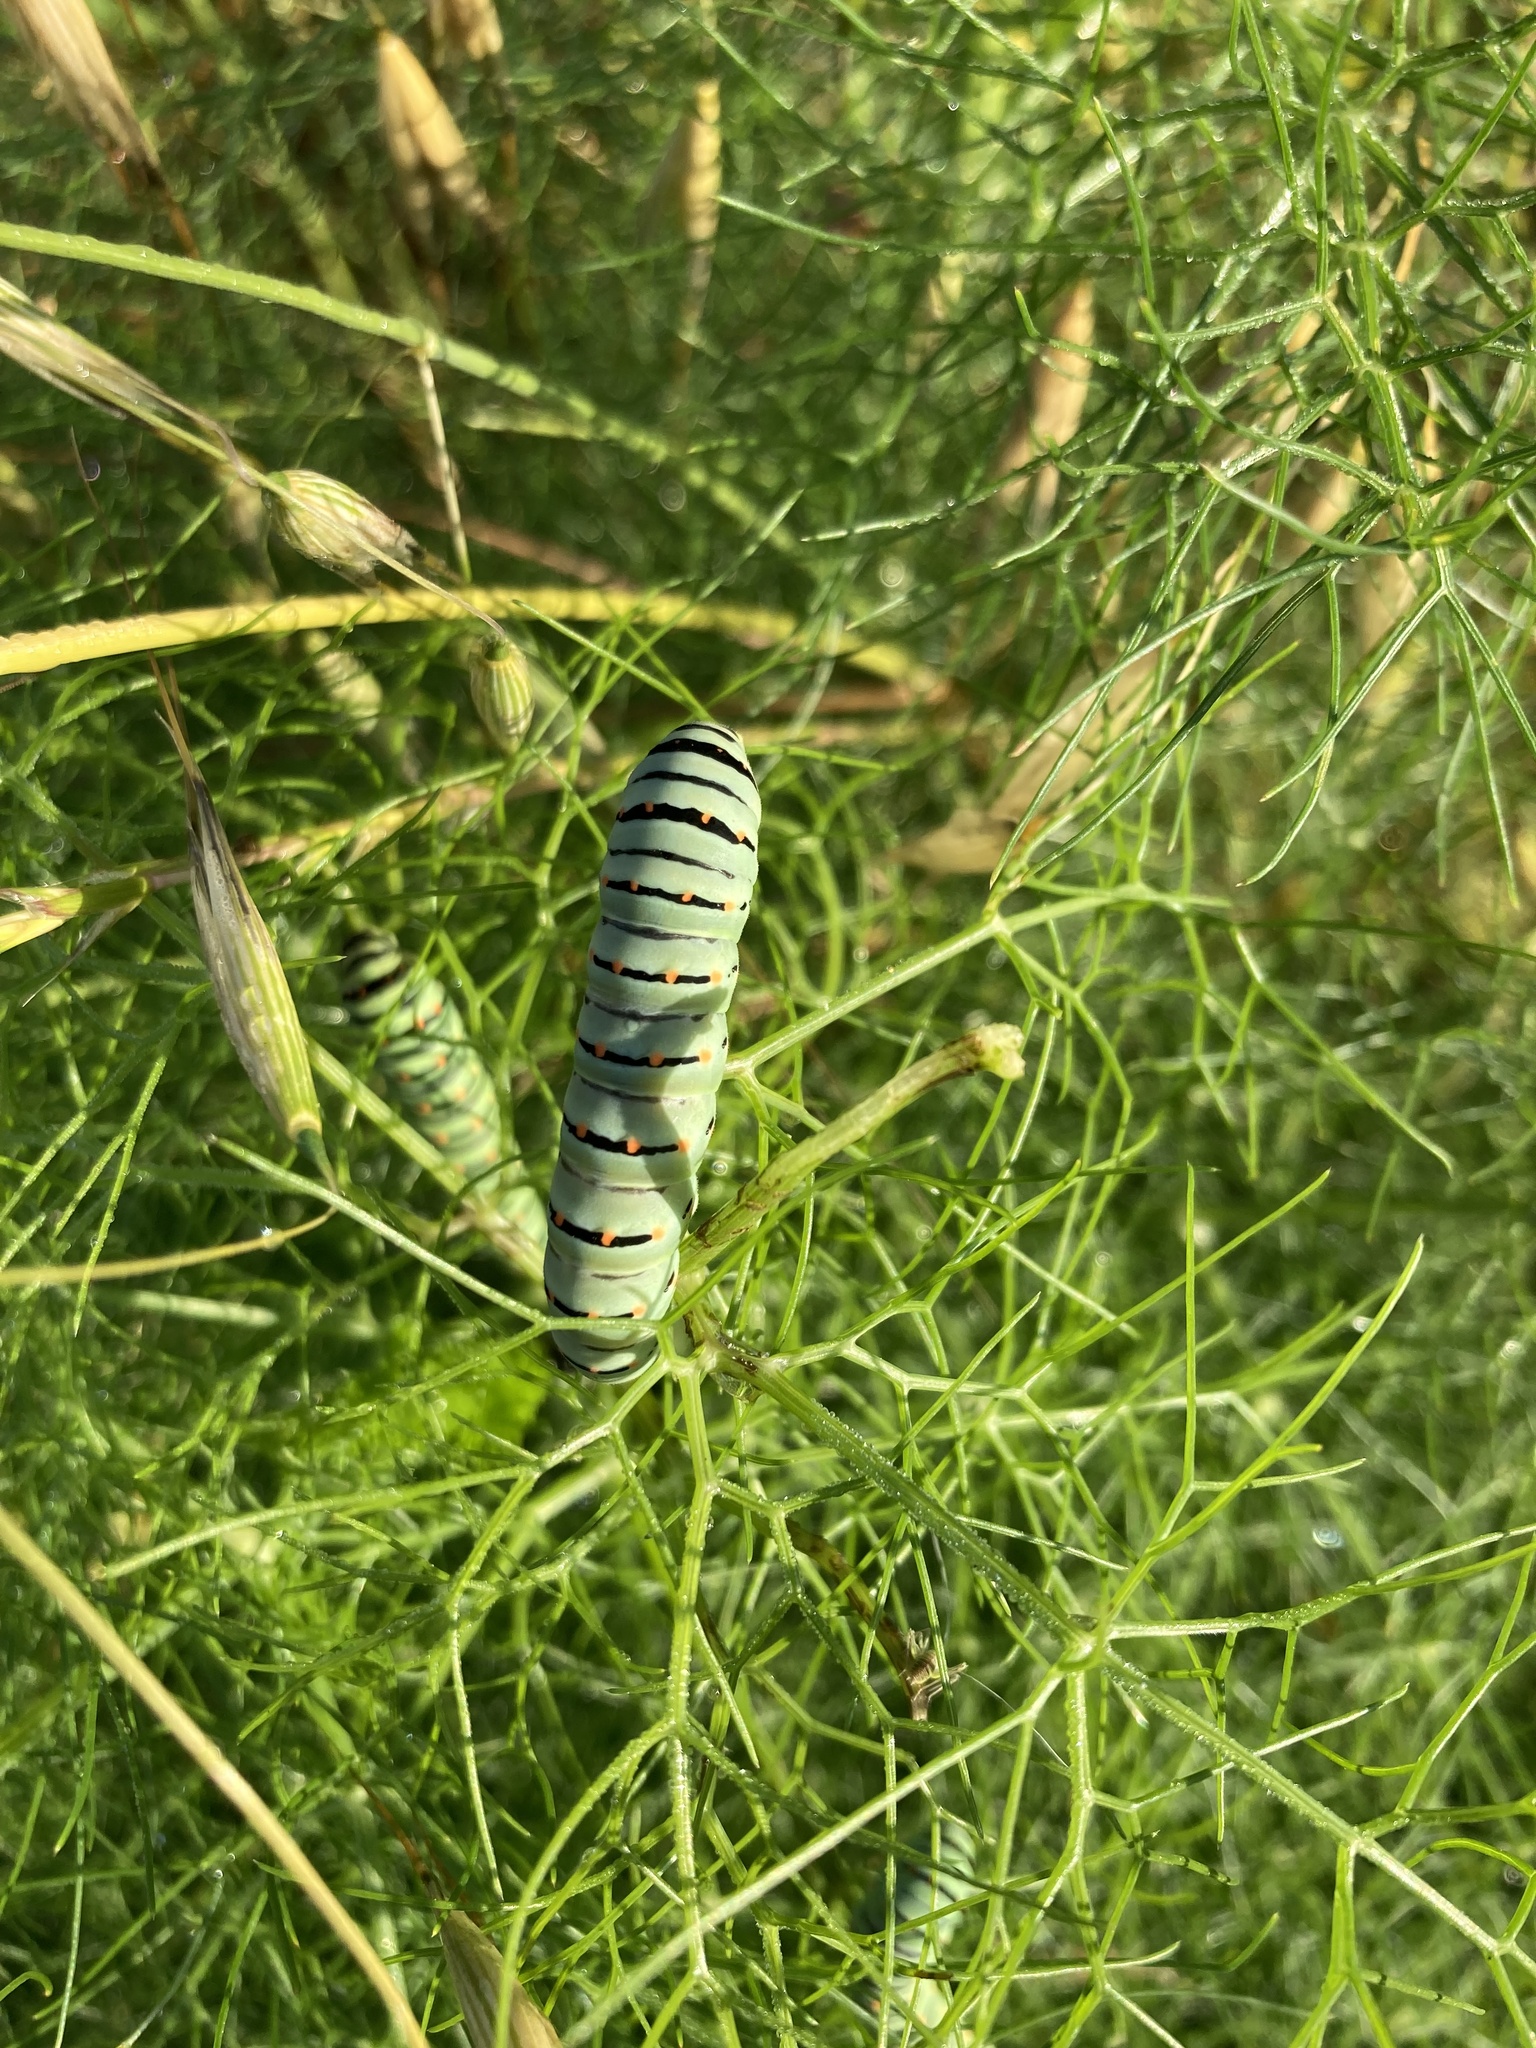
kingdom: Animalia
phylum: Arthropoda
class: Insecta
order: Lepidoptera
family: Papilionidae
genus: Papilio
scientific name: Papilio machaon
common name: Swallowtail
